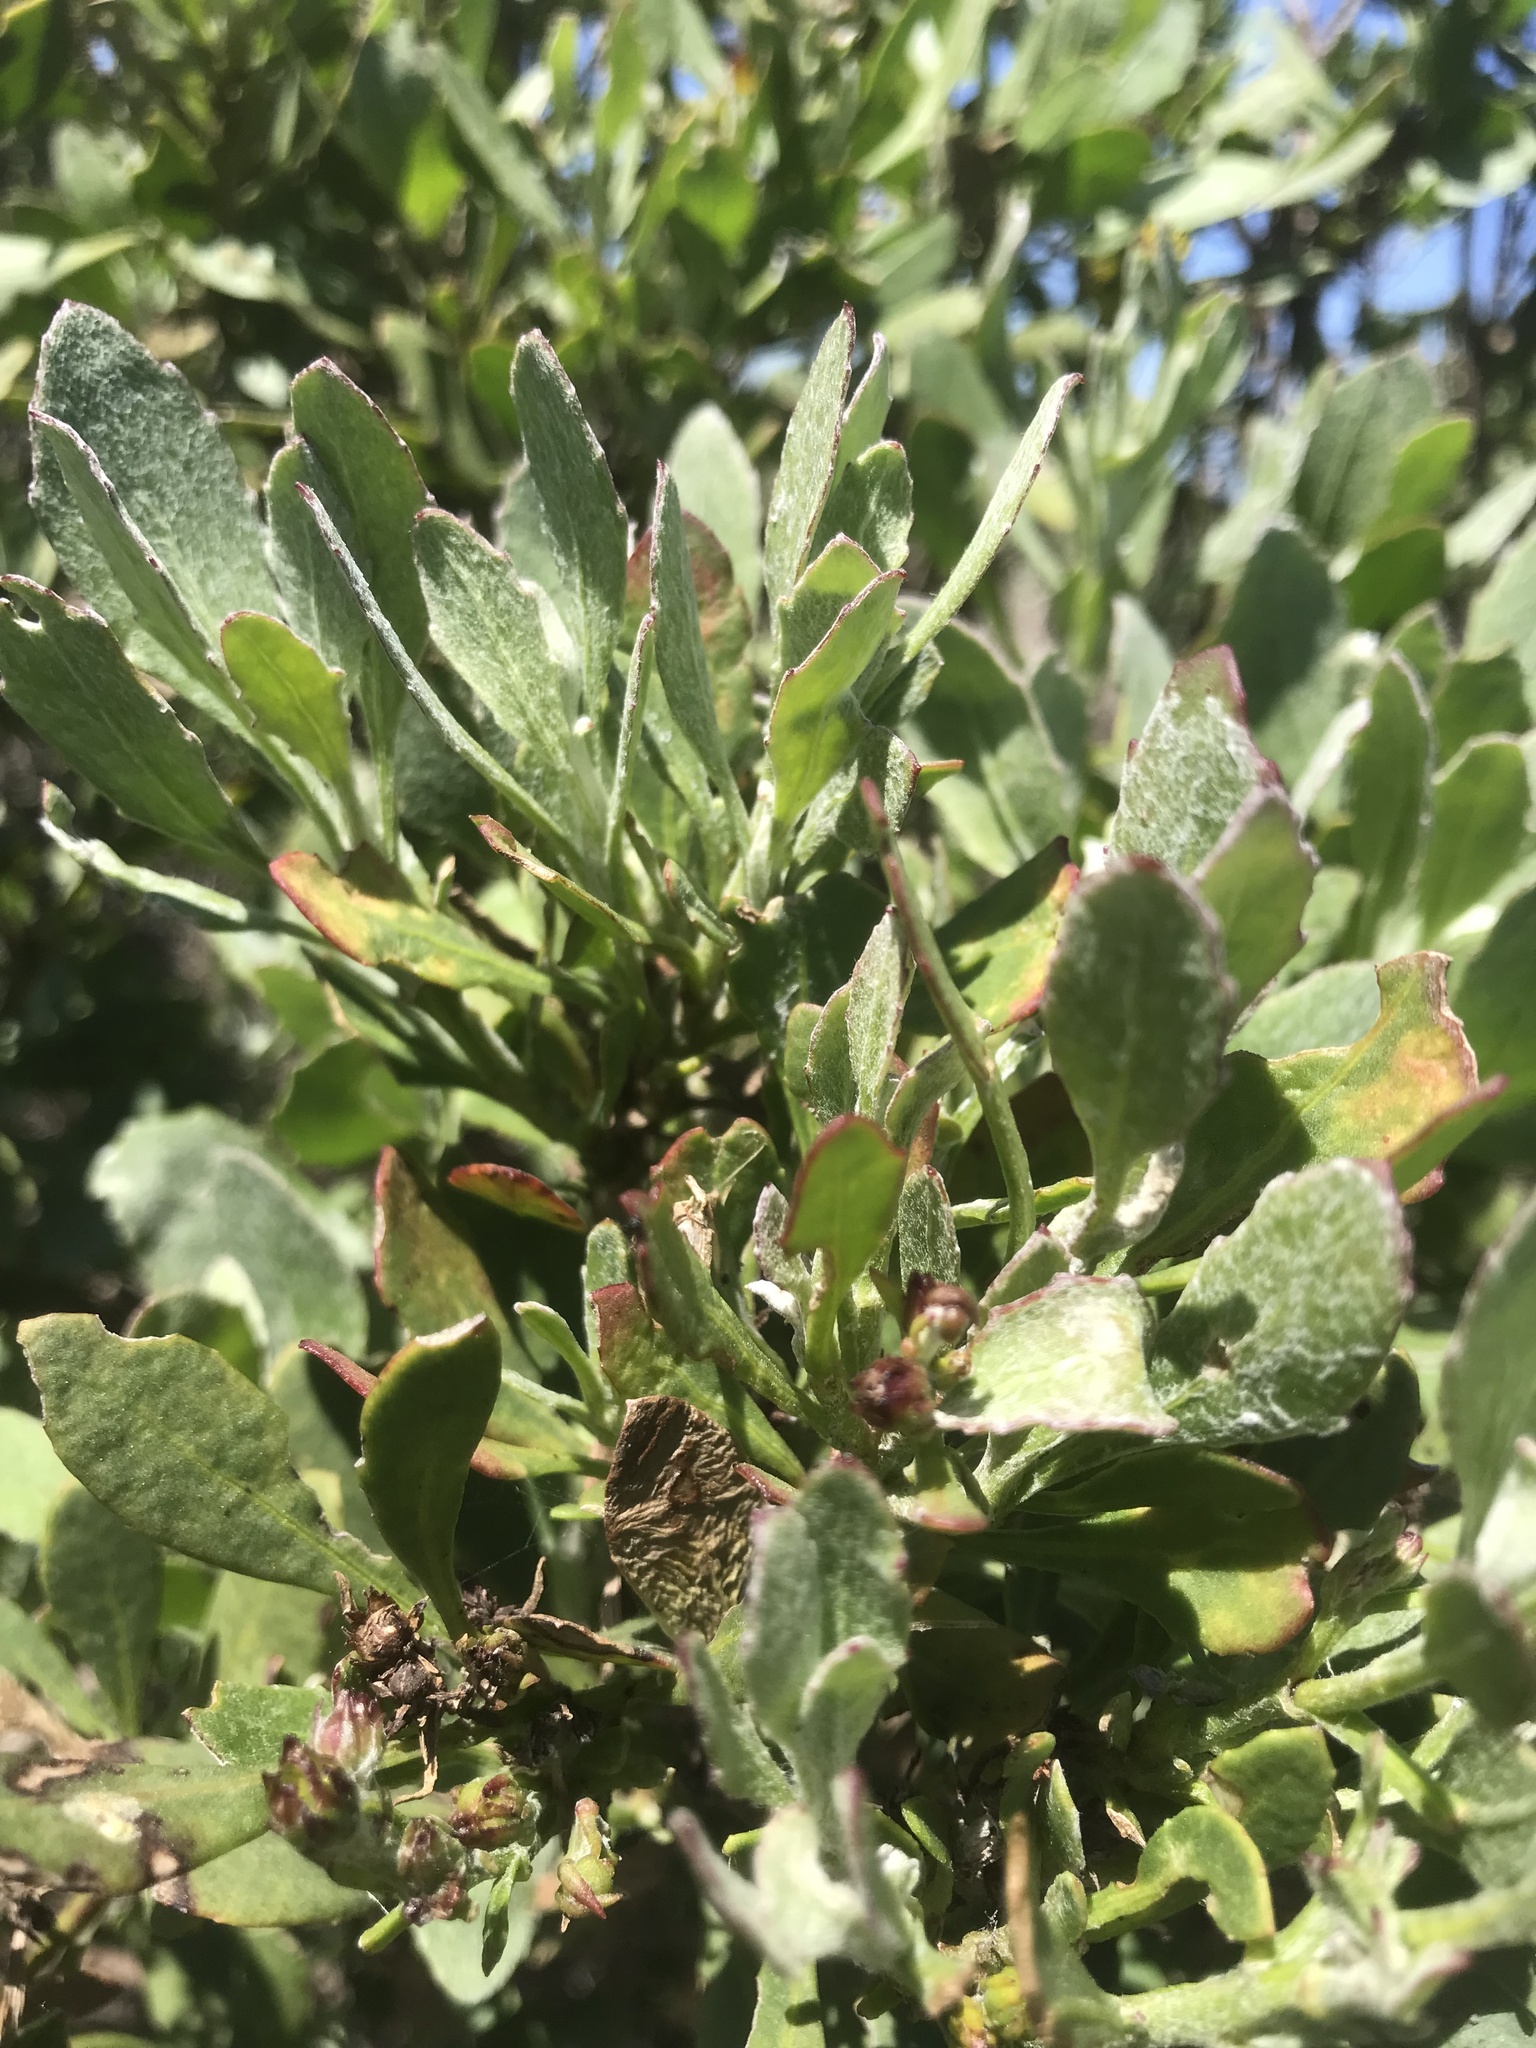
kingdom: Plantae
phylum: Tracheophyta
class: Magnoliopsida
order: Asterales
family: Asteraceae
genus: Osteospermum
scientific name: Osteospermum moniliferum
